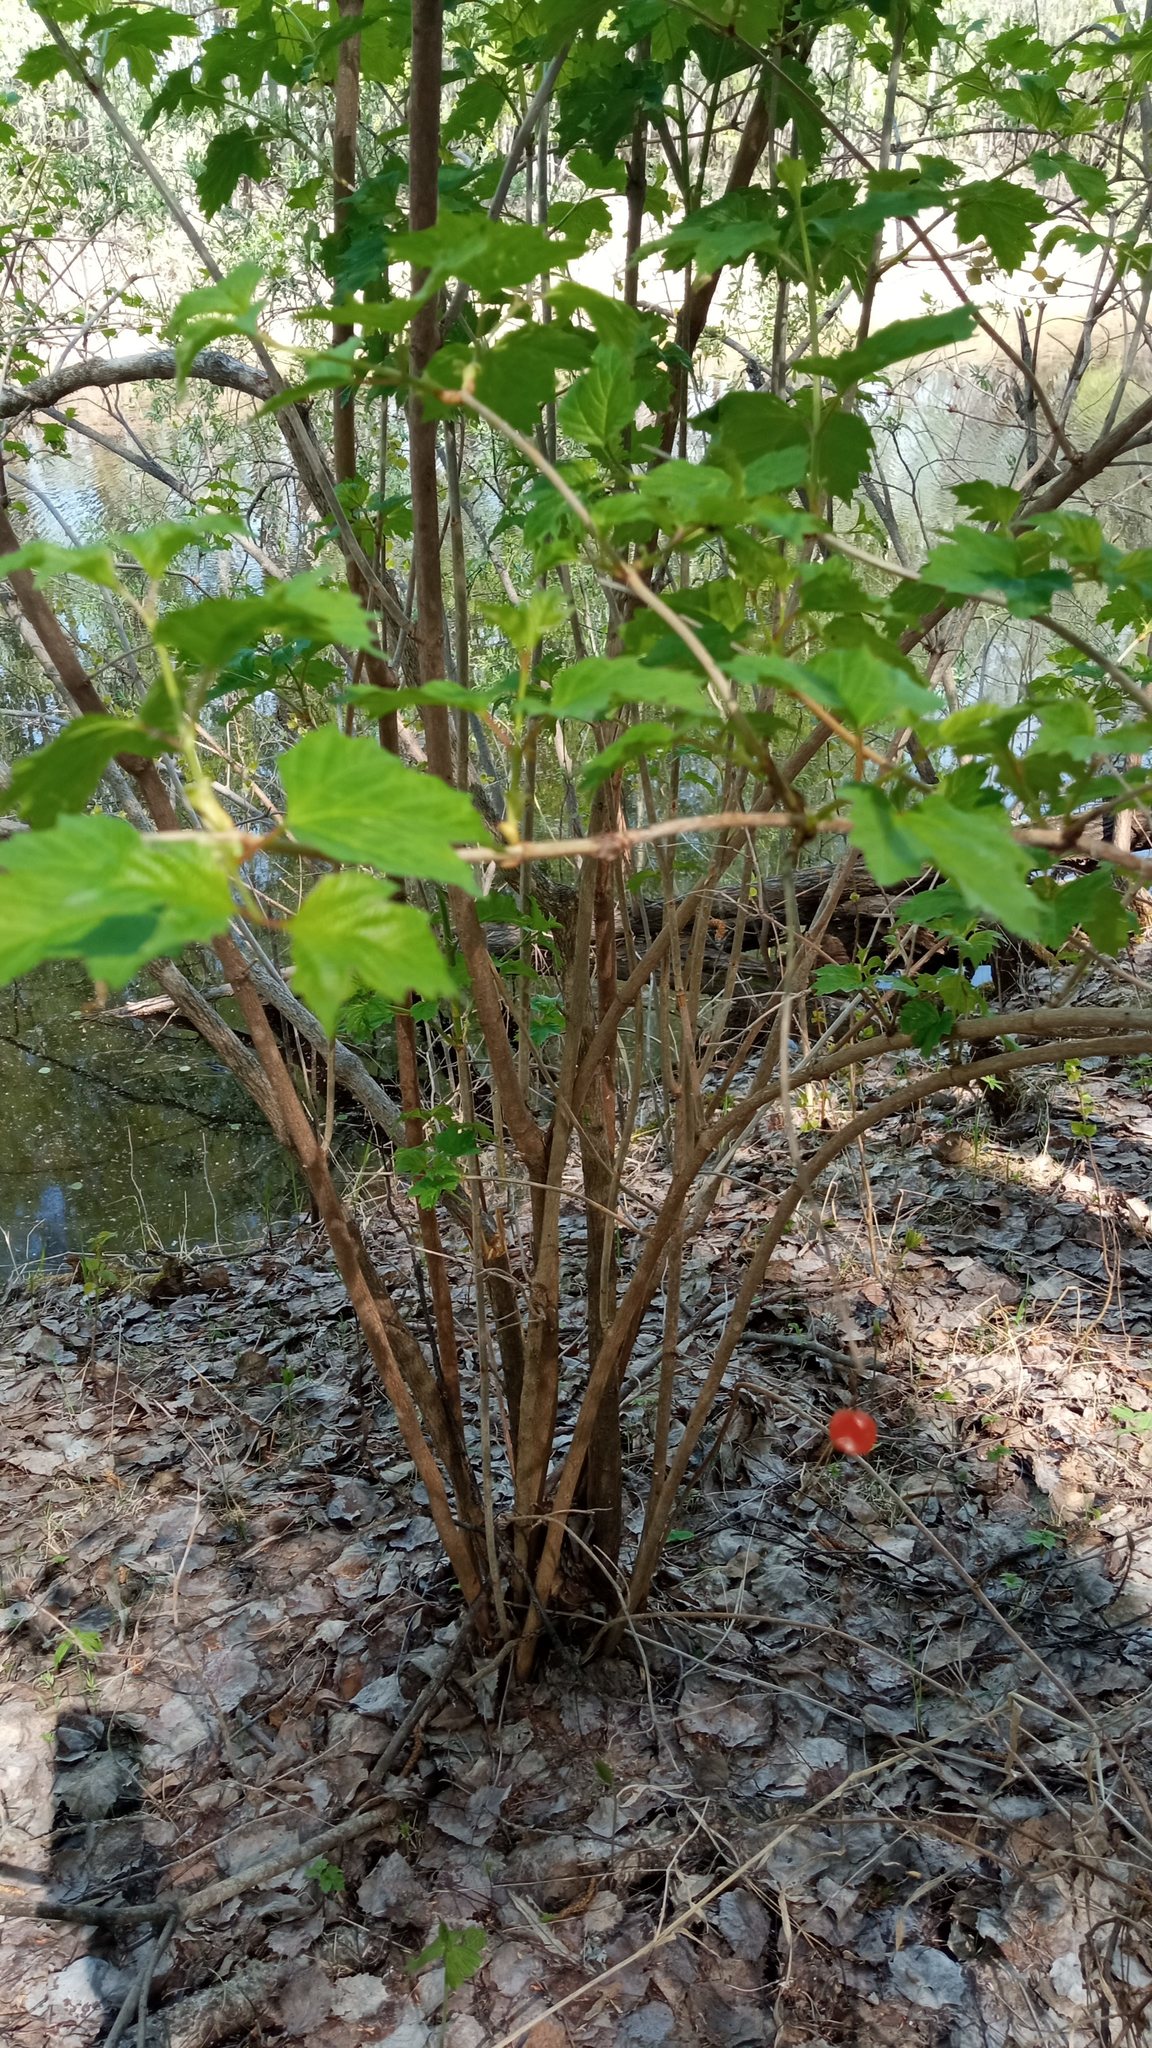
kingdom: Plantae
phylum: Tracheophyta
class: Magnoliopsida
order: Dipsacales
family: Viburnaceae
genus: Viburnum
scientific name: Viburnum opulus
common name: Guelder-rose
